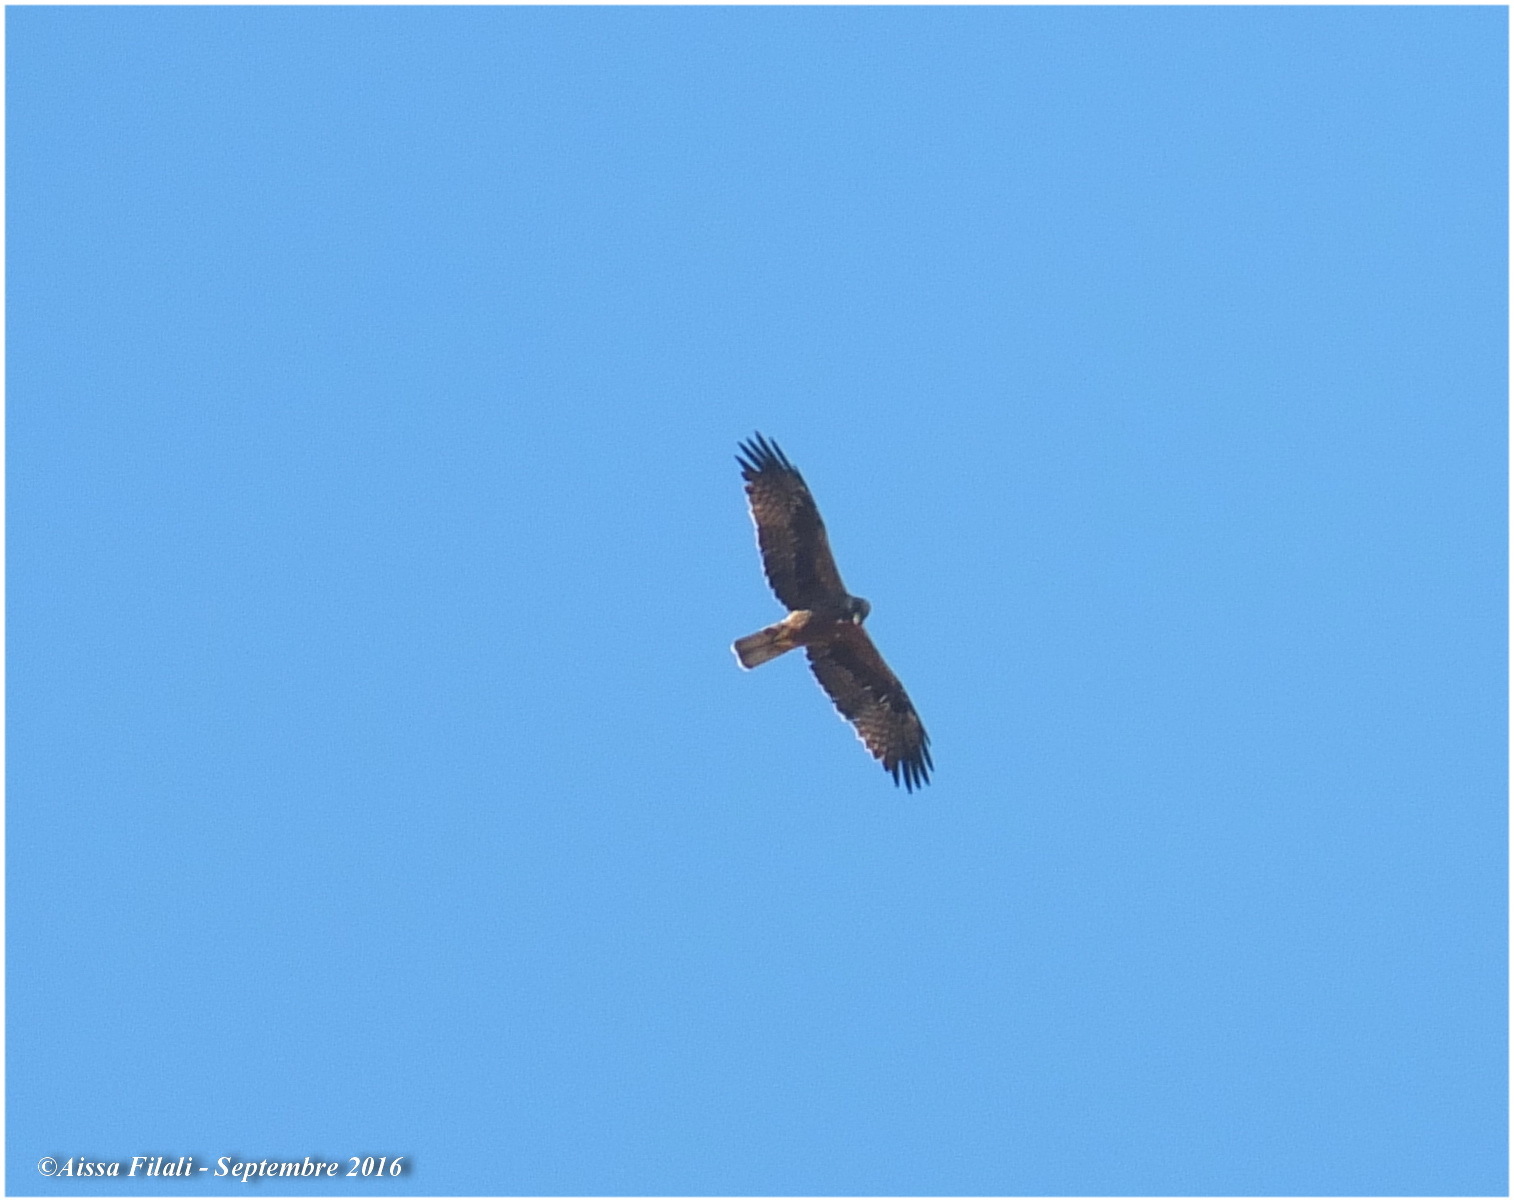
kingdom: Animalia
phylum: Chordata
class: Aves
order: Accipitriformes
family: Accipitridae
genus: Hieraaetus
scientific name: Hieraaetus pennatus
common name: Booted eagle
